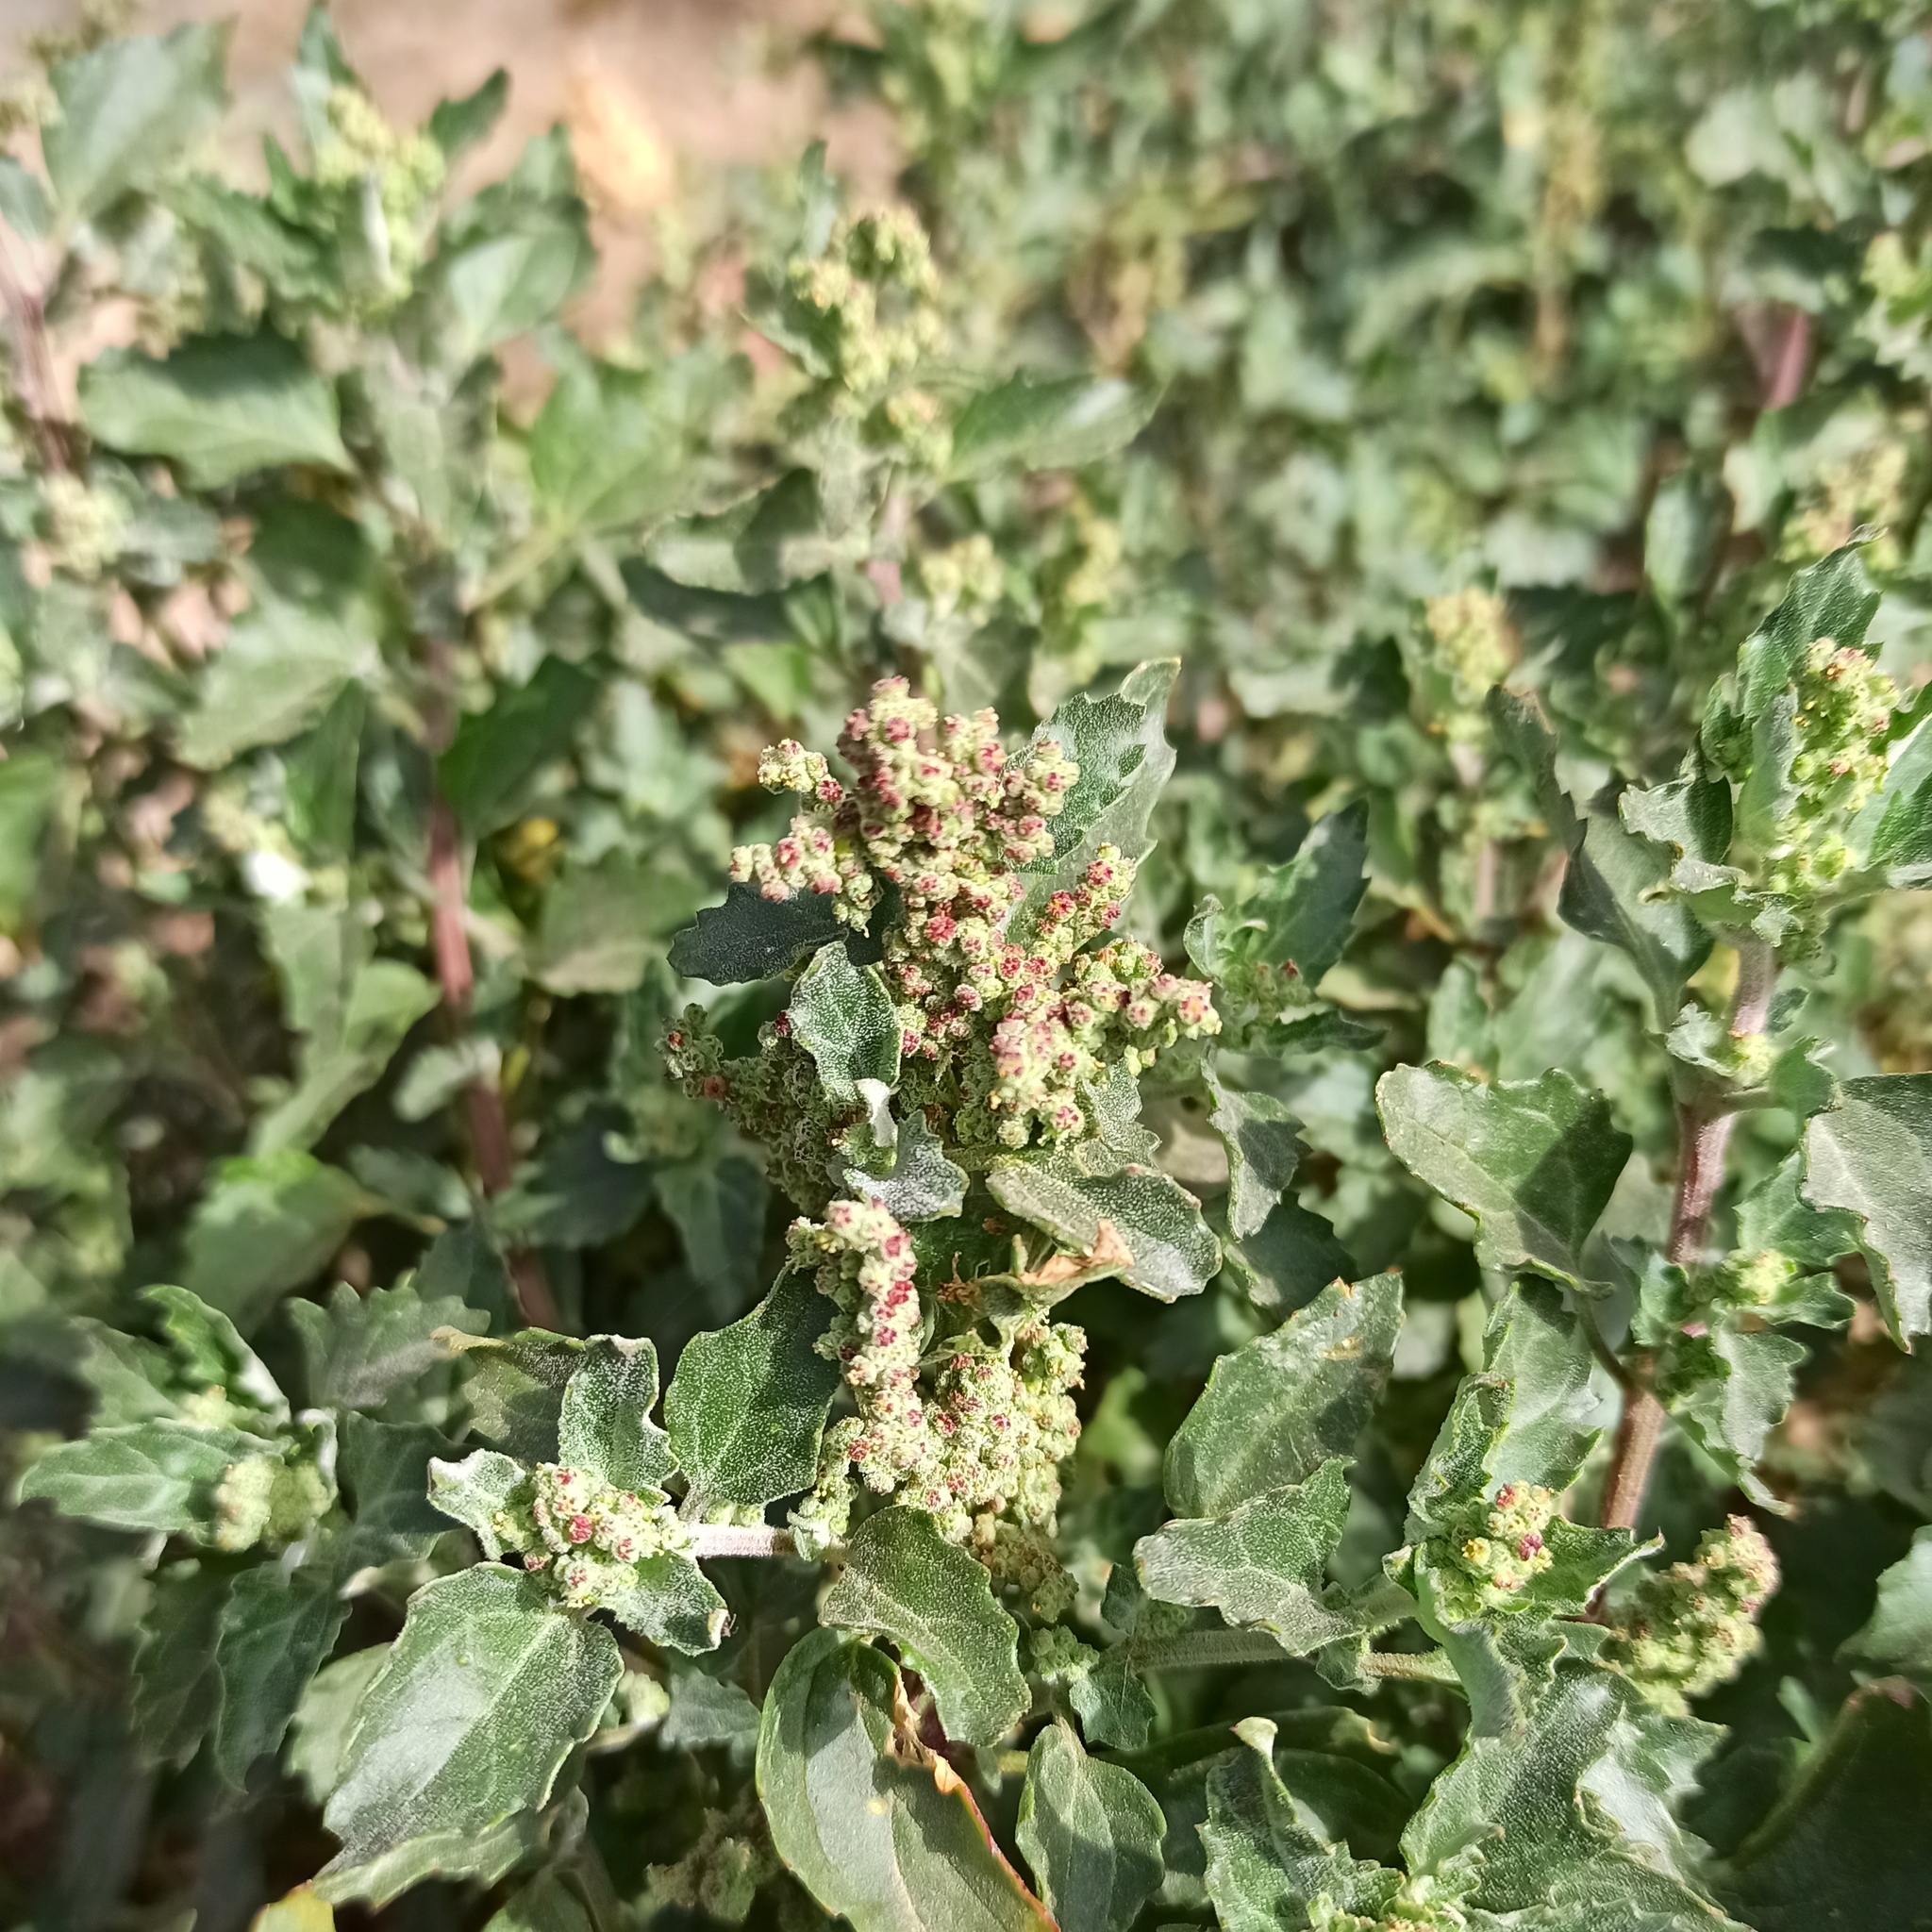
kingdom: Plantae
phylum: Tracheophyta
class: Magnoliopsida
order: Caryophyllales
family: Amaranthaceae
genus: Chenopodiastrum
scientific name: Chenopodiastrum murale
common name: Sowbane
